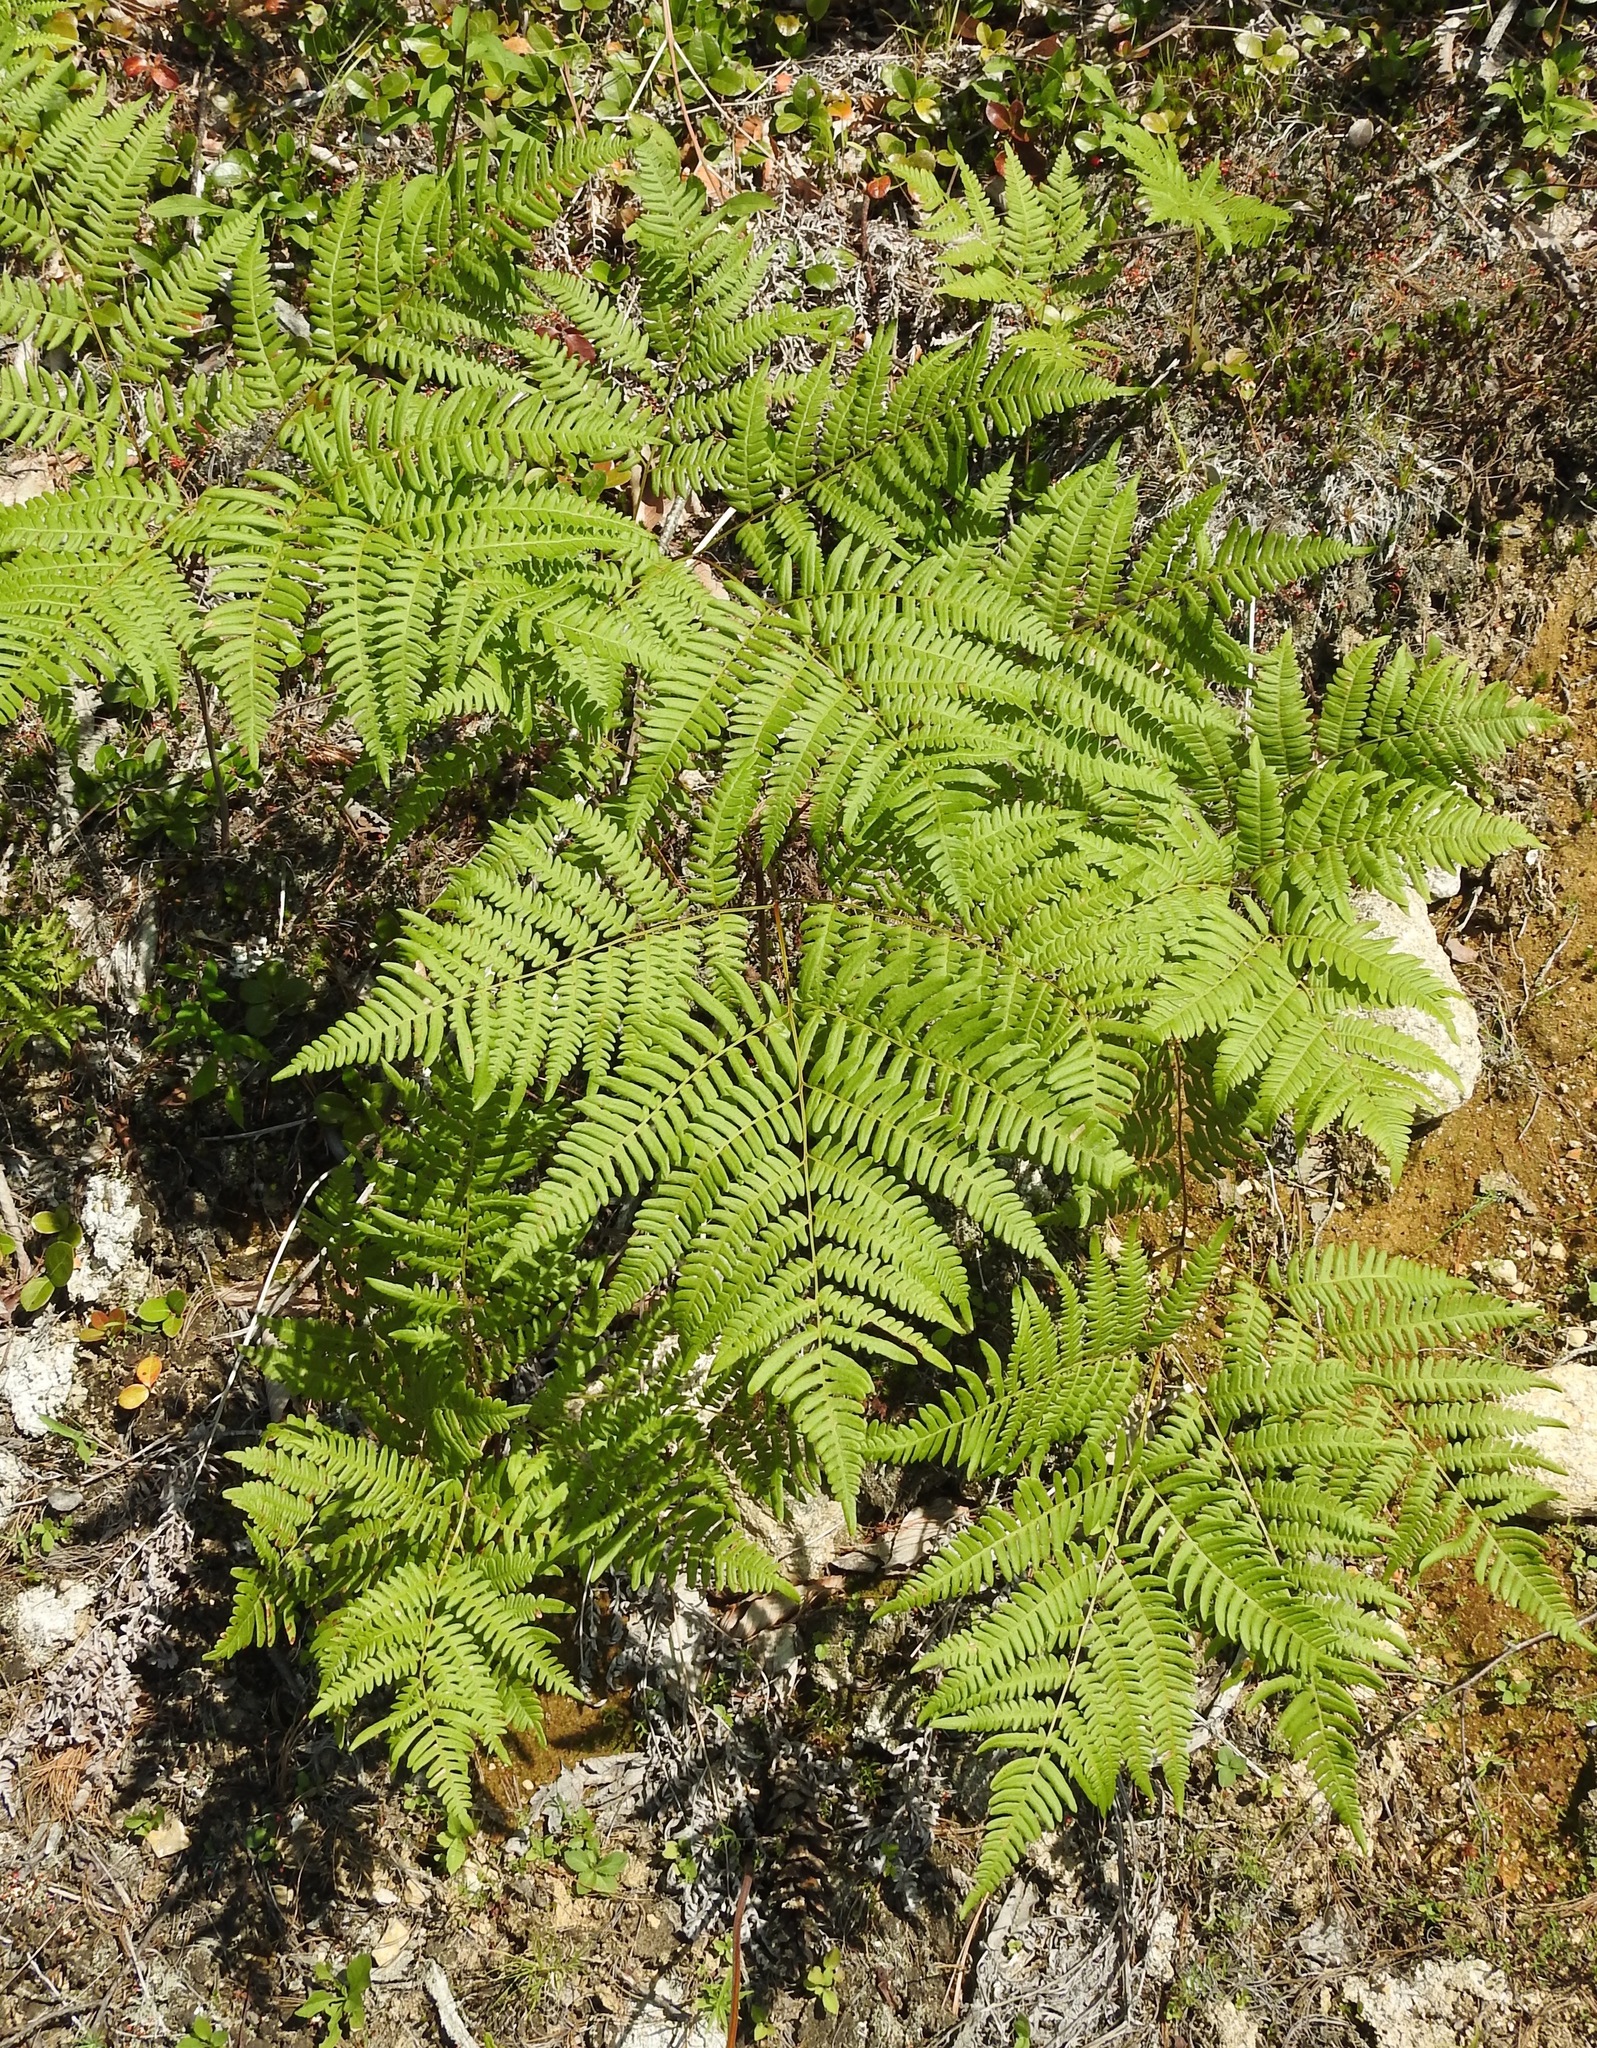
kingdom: Plantae
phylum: Tracheophyta
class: Polypodiopsida
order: Polypodiales
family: Dennstaedtiaceae
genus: Pteridium
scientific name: Pteridium aquilinum
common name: Bracken
